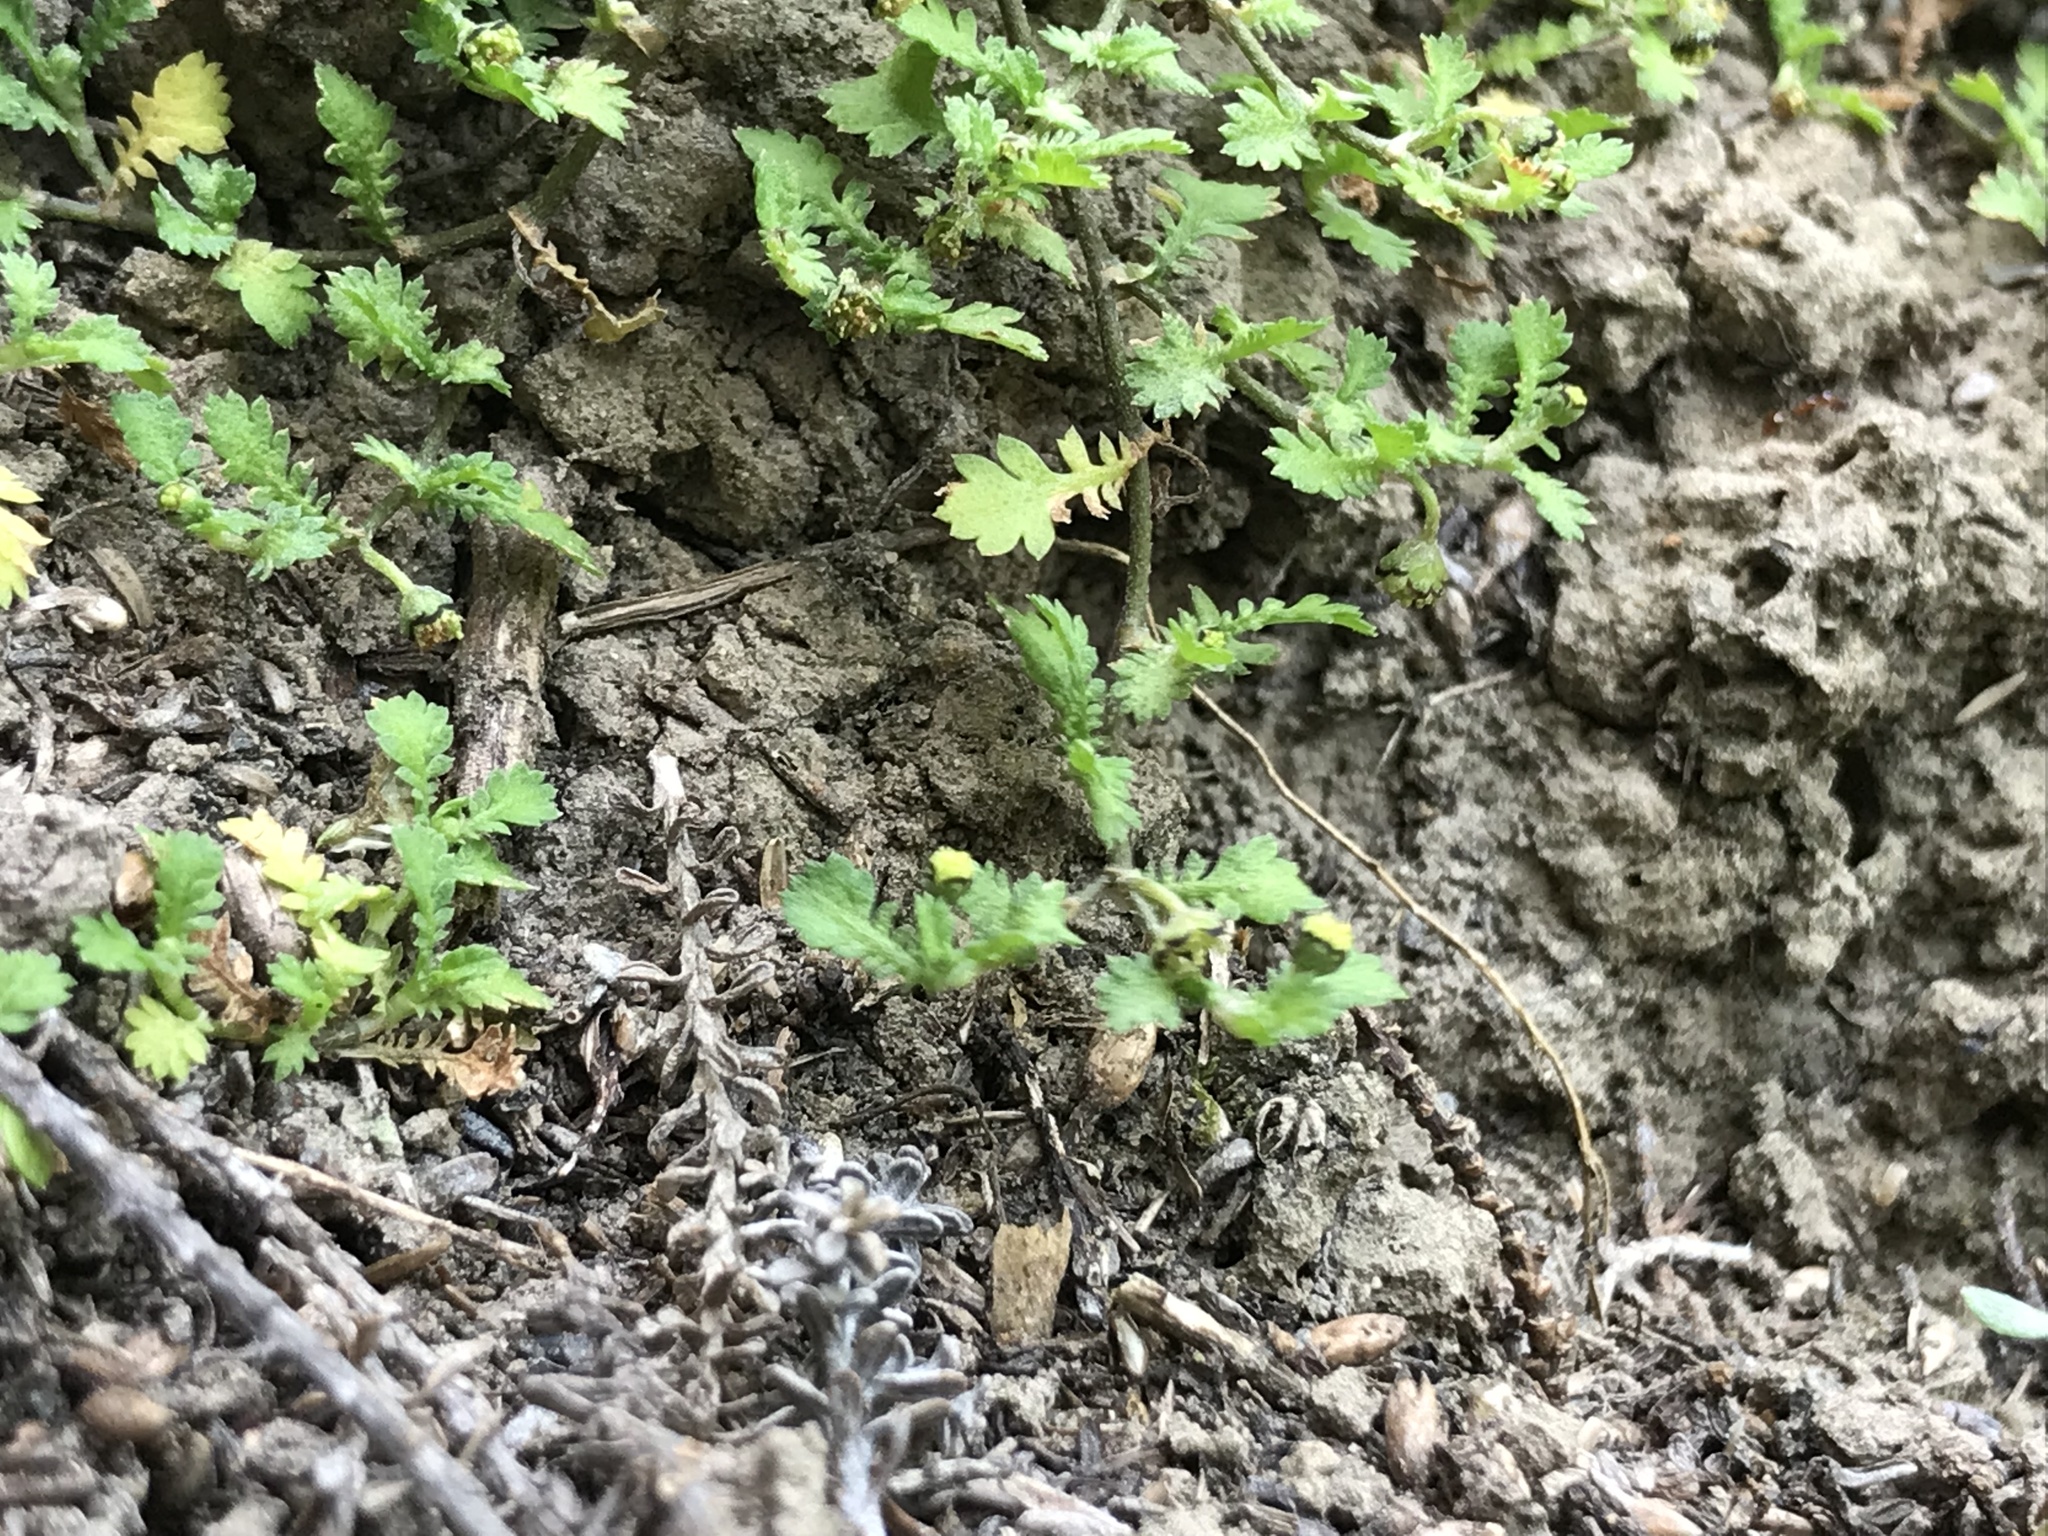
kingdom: Plantae
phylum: Tracheophyta
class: Magnoliopsida
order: Asterales
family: Asteraceae
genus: Leptinella
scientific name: Leptinella nana
